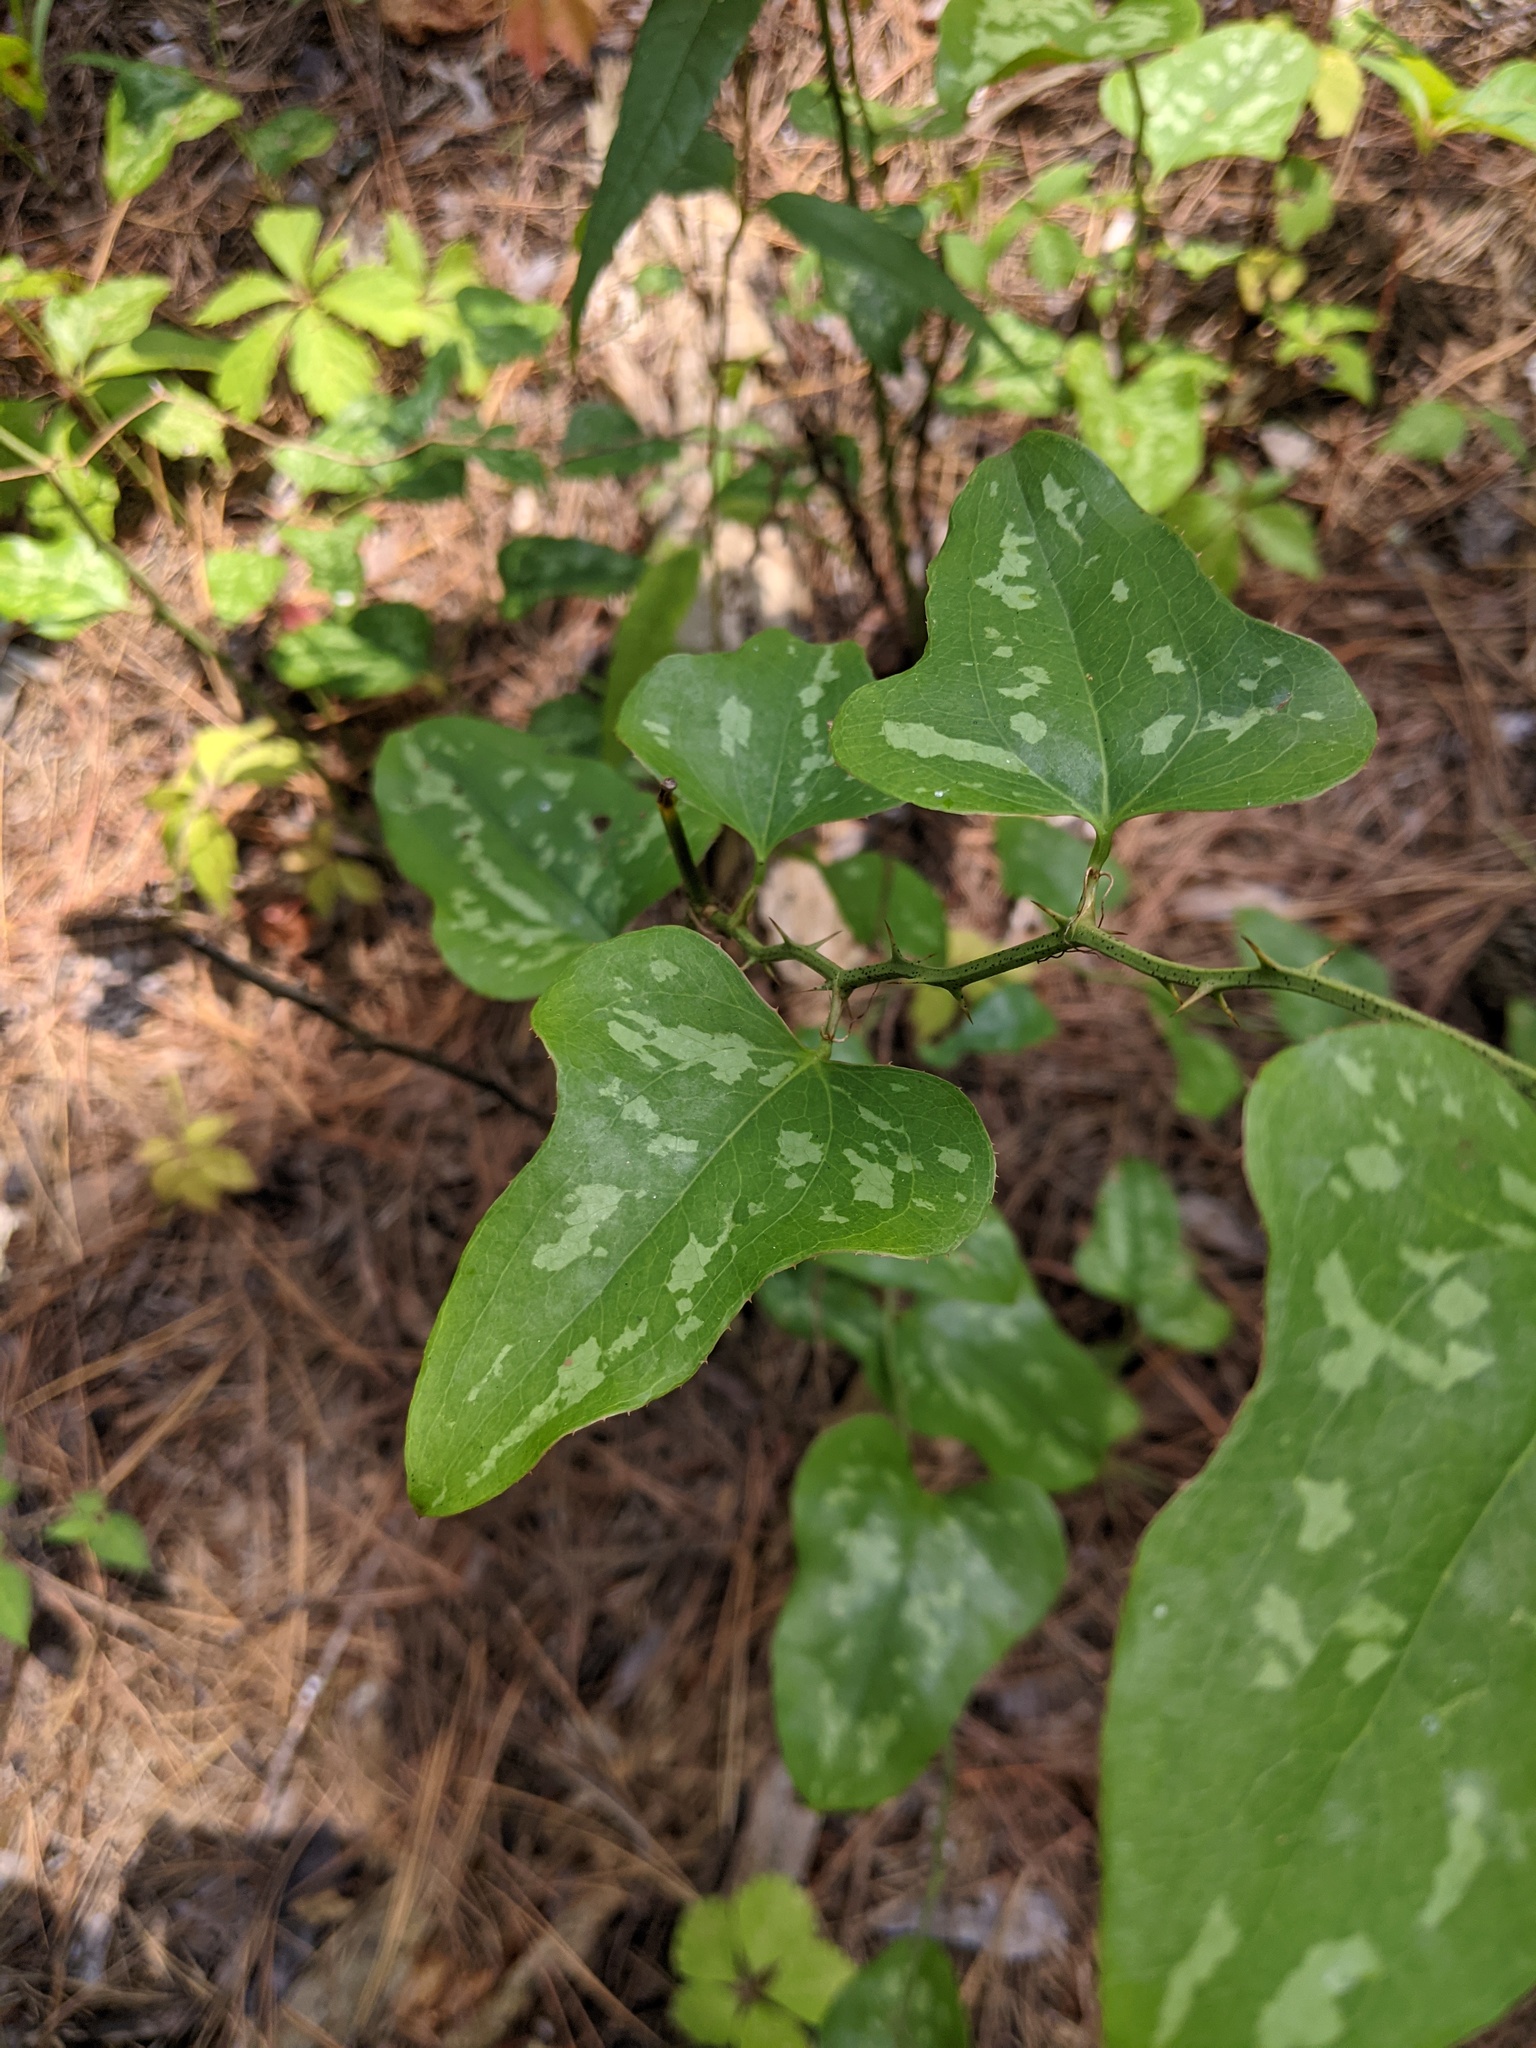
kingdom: Plantae
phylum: Tracheophyta
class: Liliopsida
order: Liliales
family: Smilacaceae
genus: Smilax
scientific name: Smilax bona-nox
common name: Catbrier
